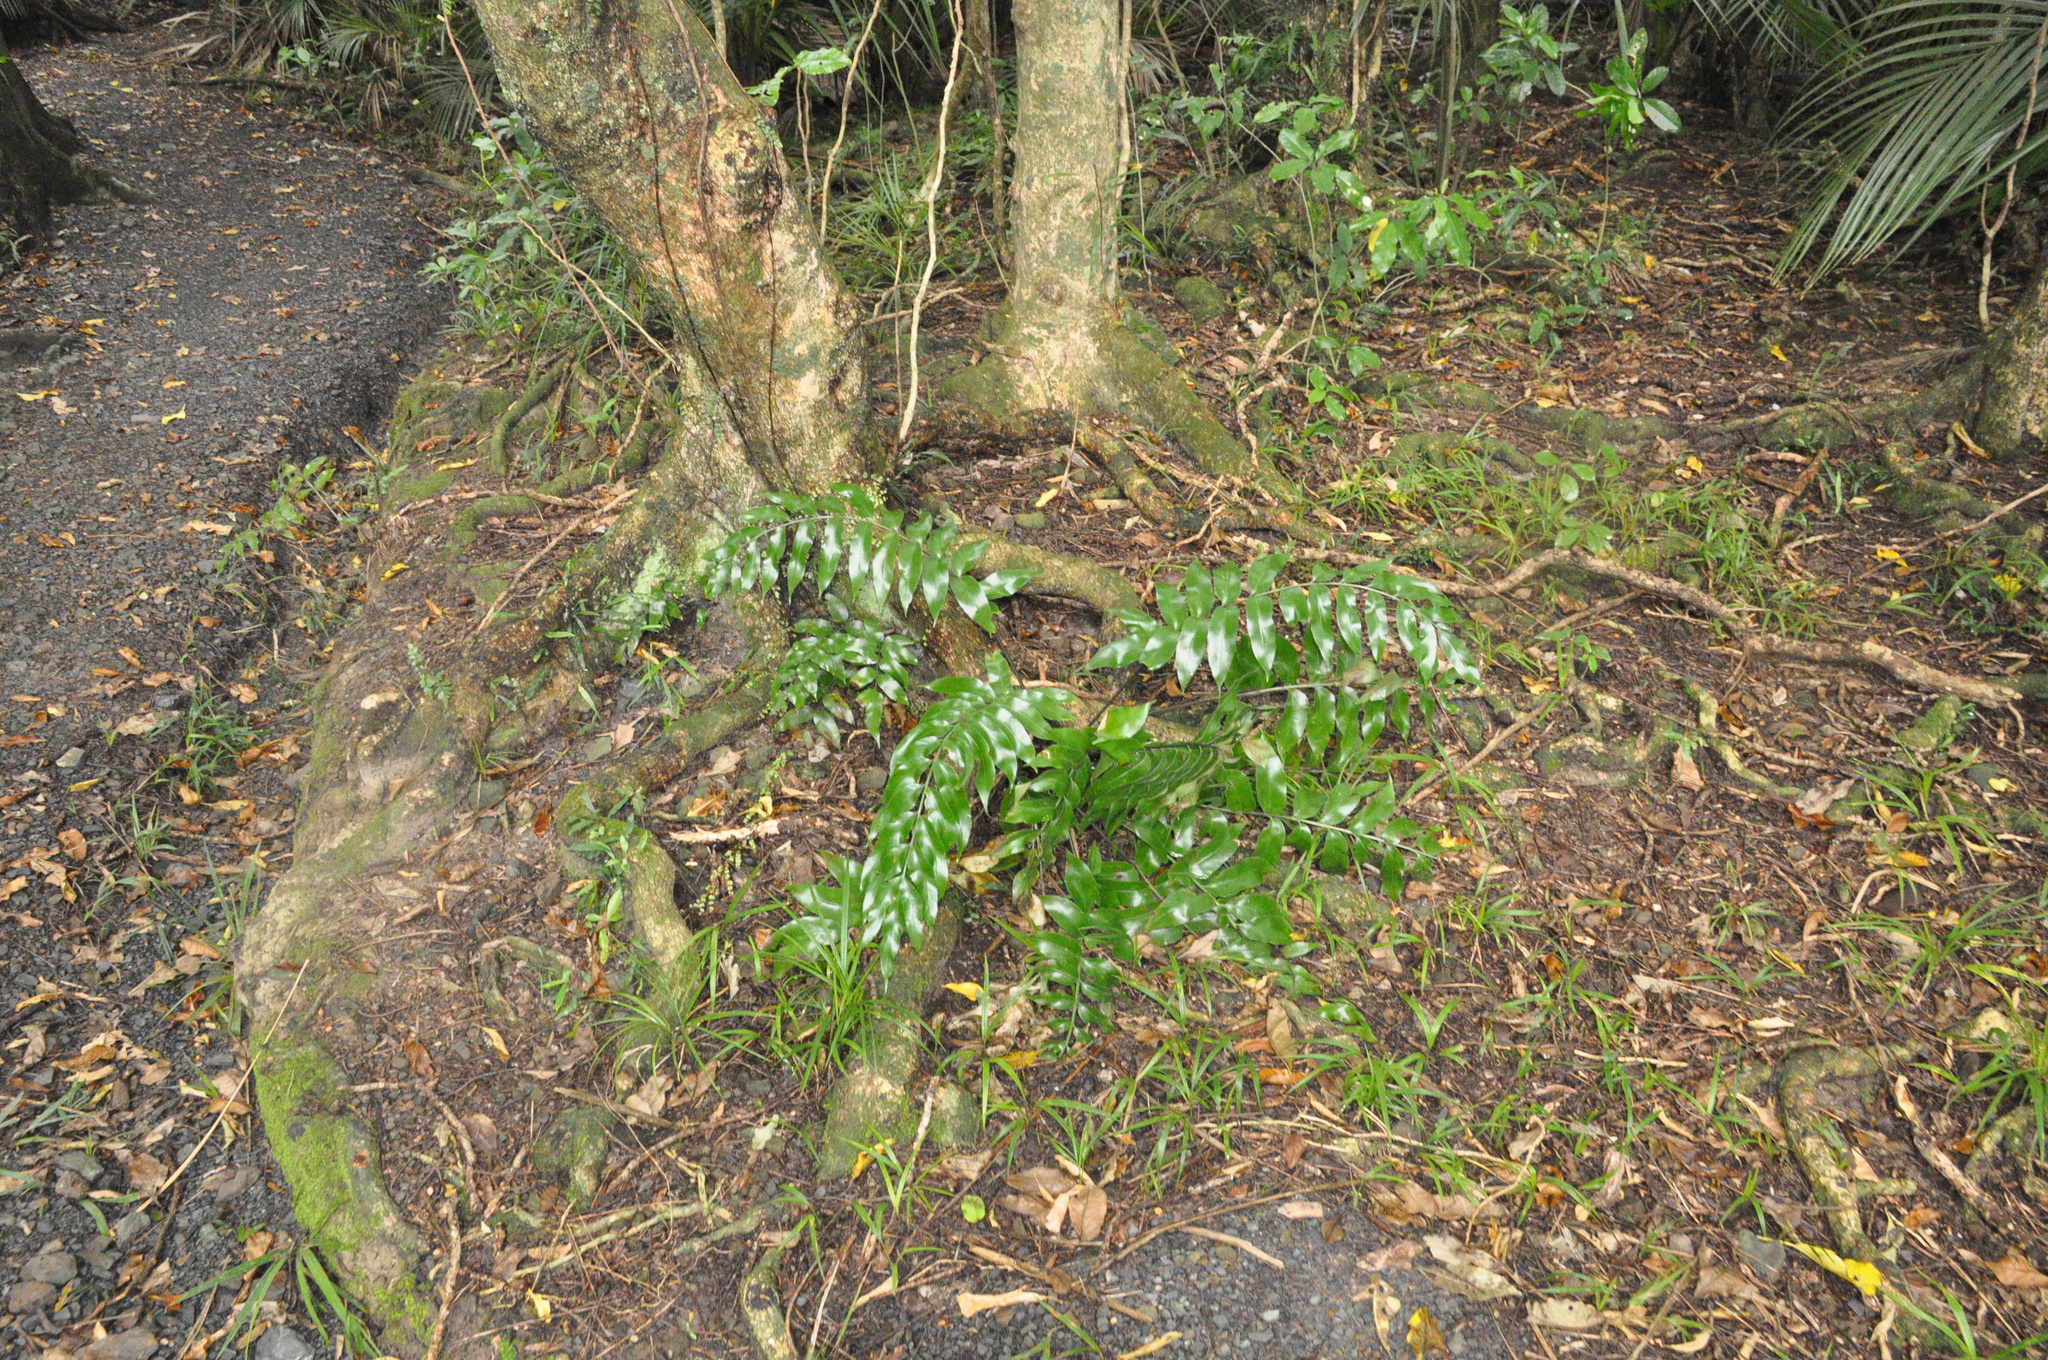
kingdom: Plantae
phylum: Tracheophyta
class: Polypodiopsida
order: Polypodiales
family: Aspleniaceae
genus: Asplenium
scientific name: Asplenium oblongifolium
